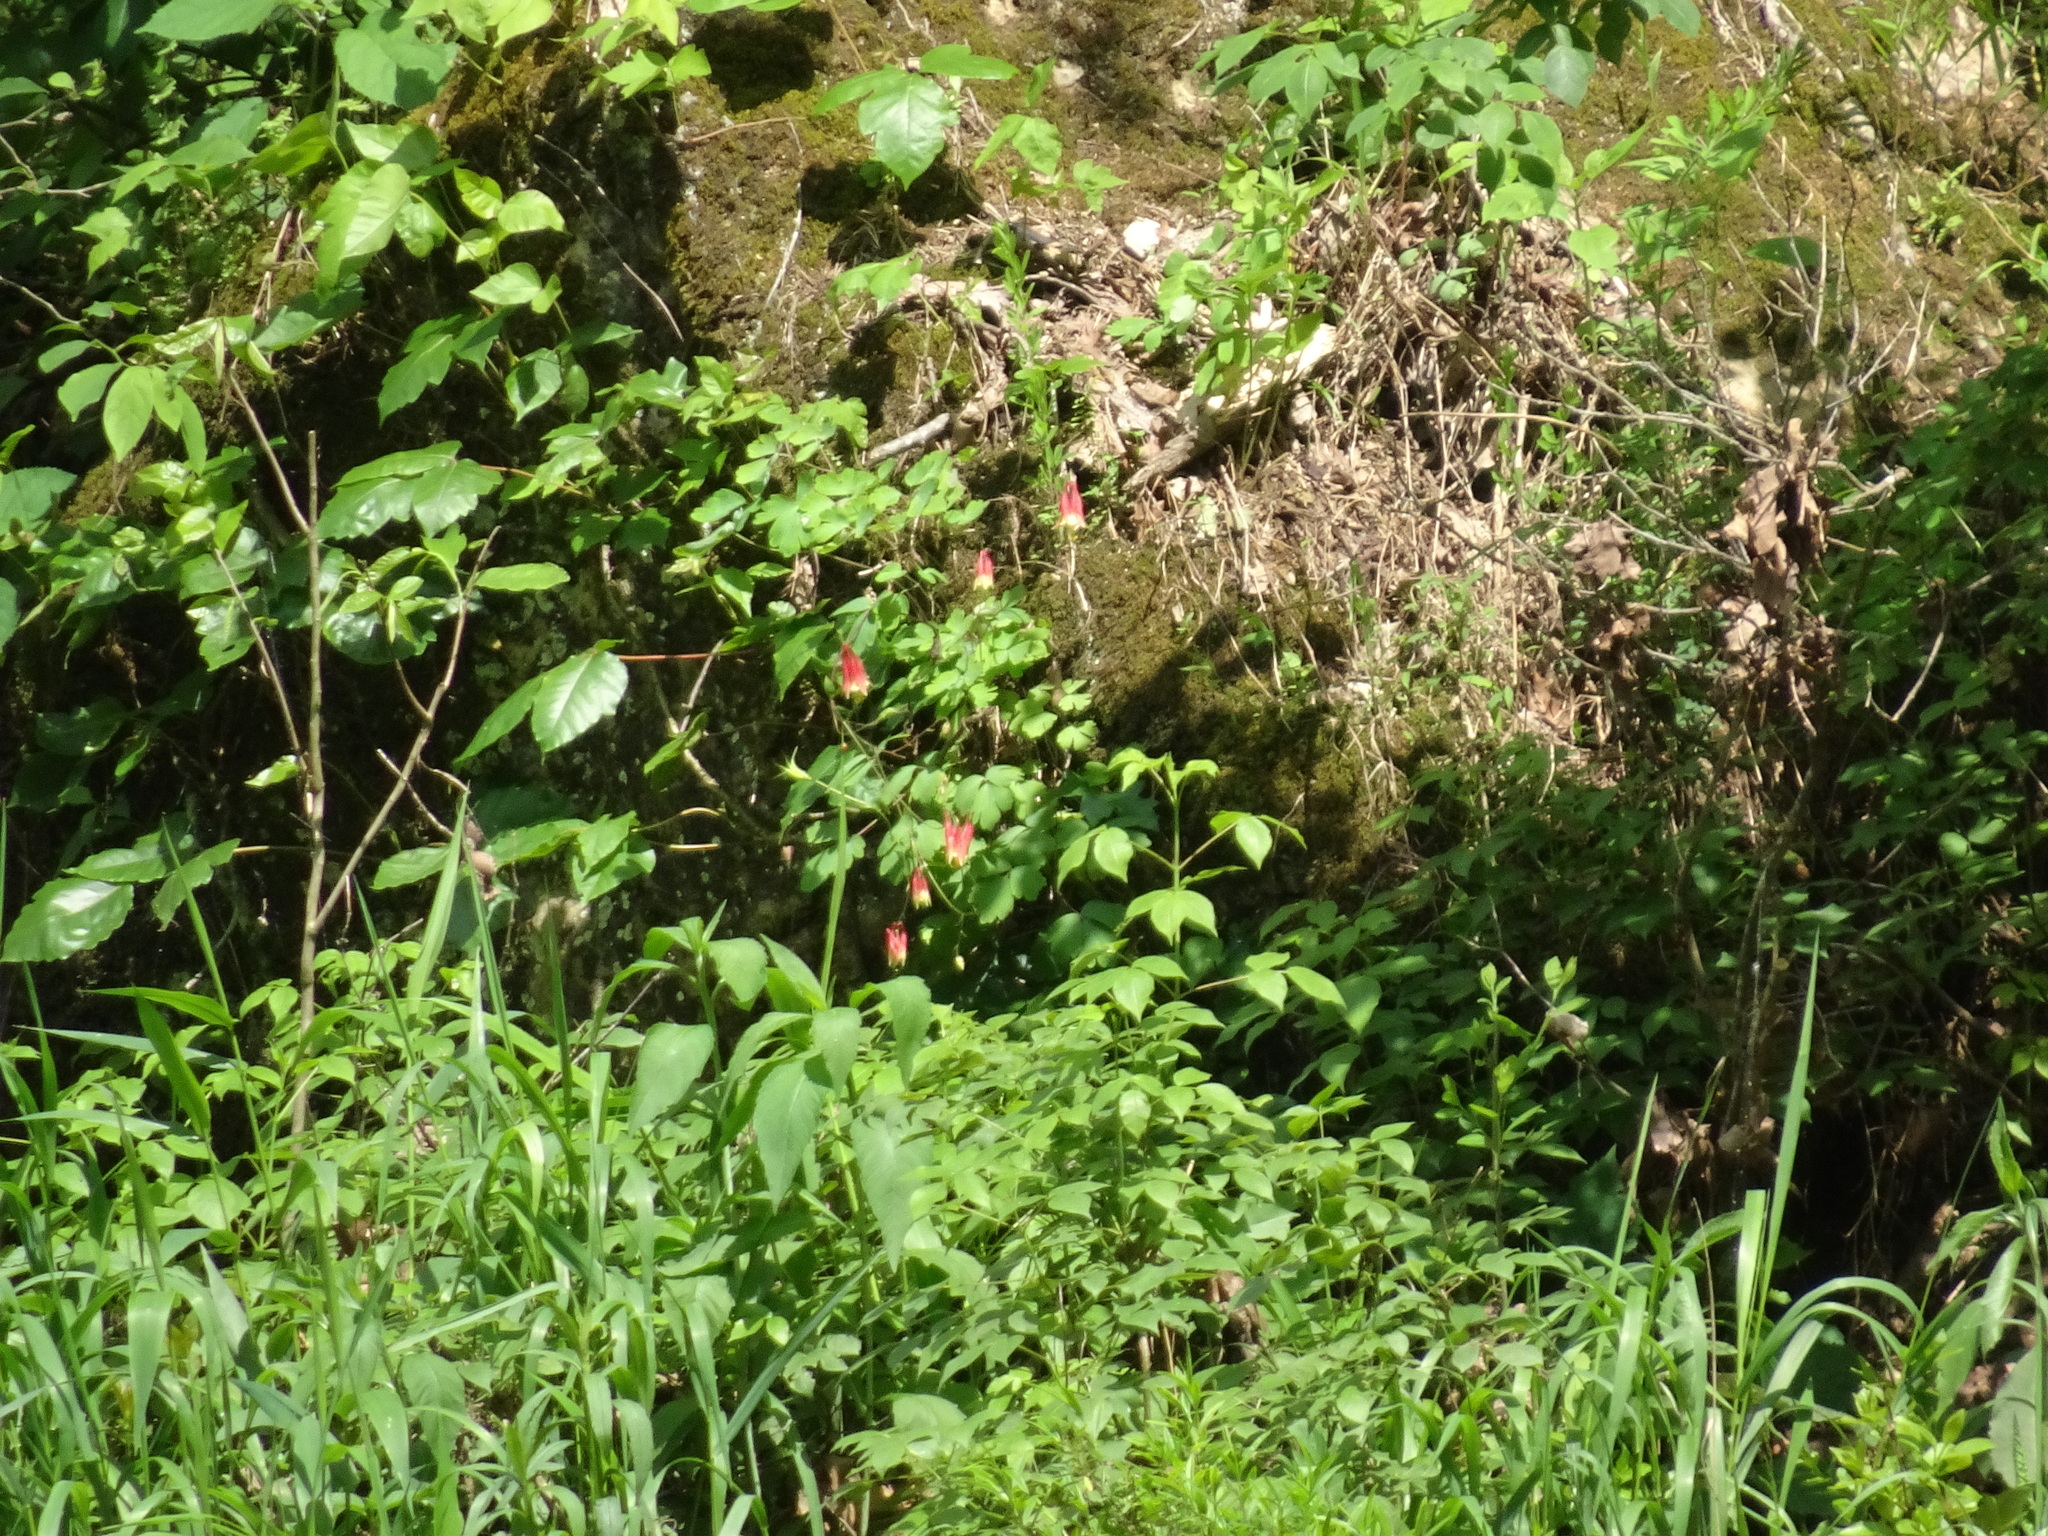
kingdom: Plantae
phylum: Tracheophyta
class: Magnoliopsida
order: Ranunculales
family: Ranunculaceae
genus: Aquilegia
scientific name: Aquilegia canadensis
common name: American columbine
